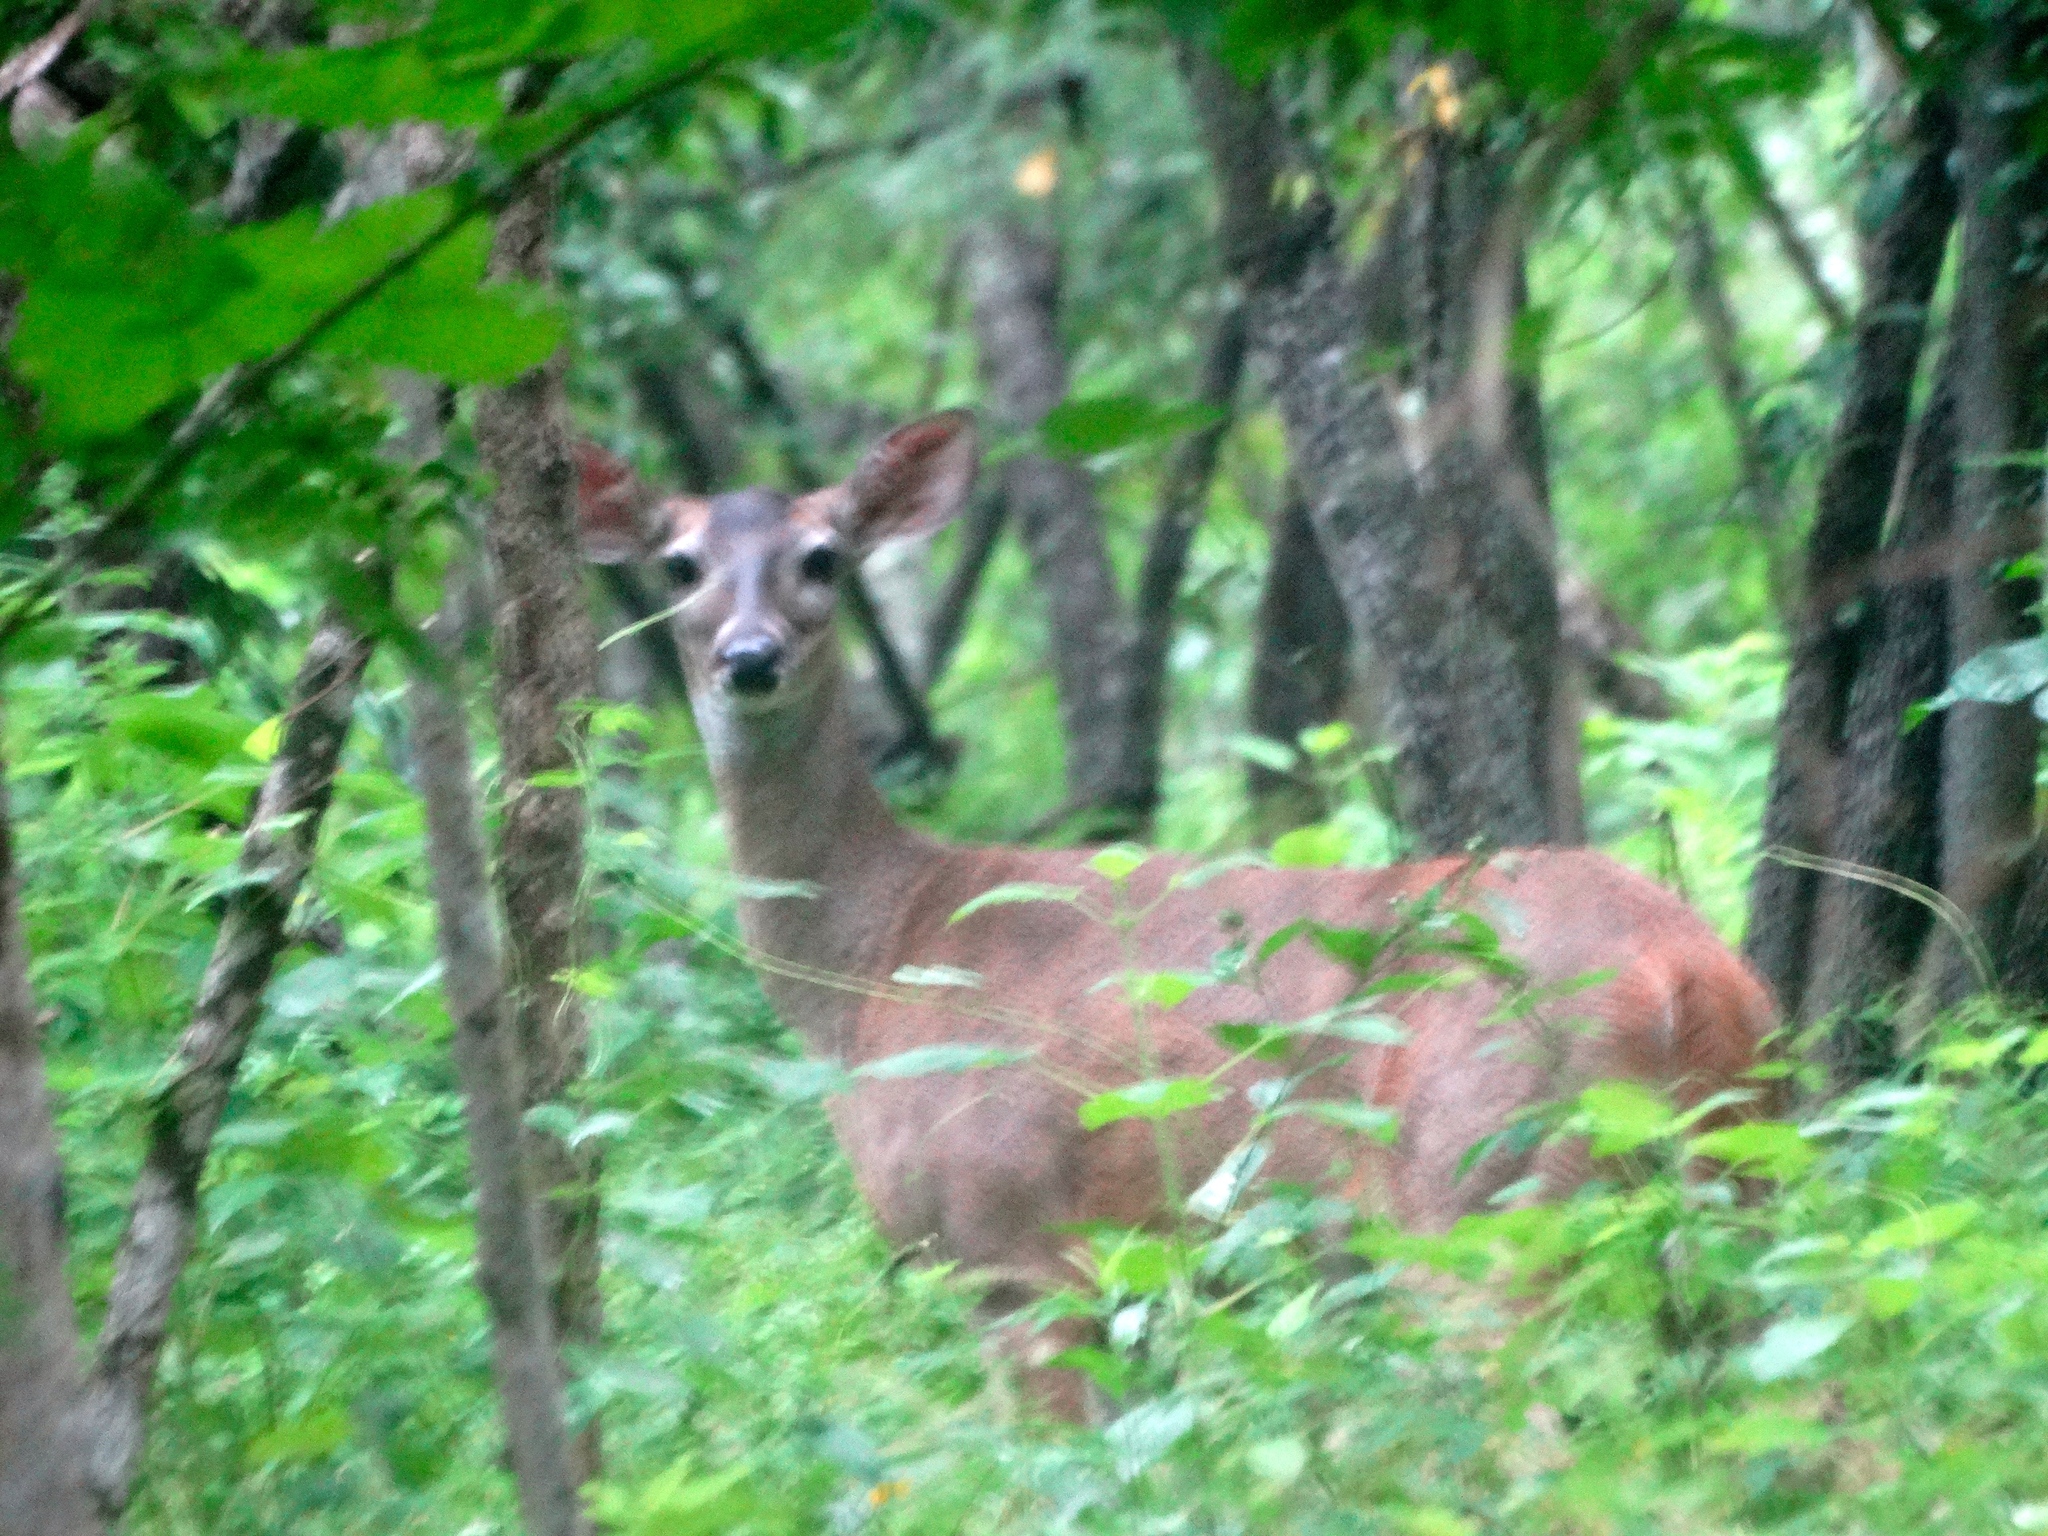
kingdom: Animalia
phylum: Chordata
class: Mammalia
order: Artiodactyla
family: Cervidae
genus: Odocoileus
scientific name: Odocoileus virginianus
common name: White-tailed deer
